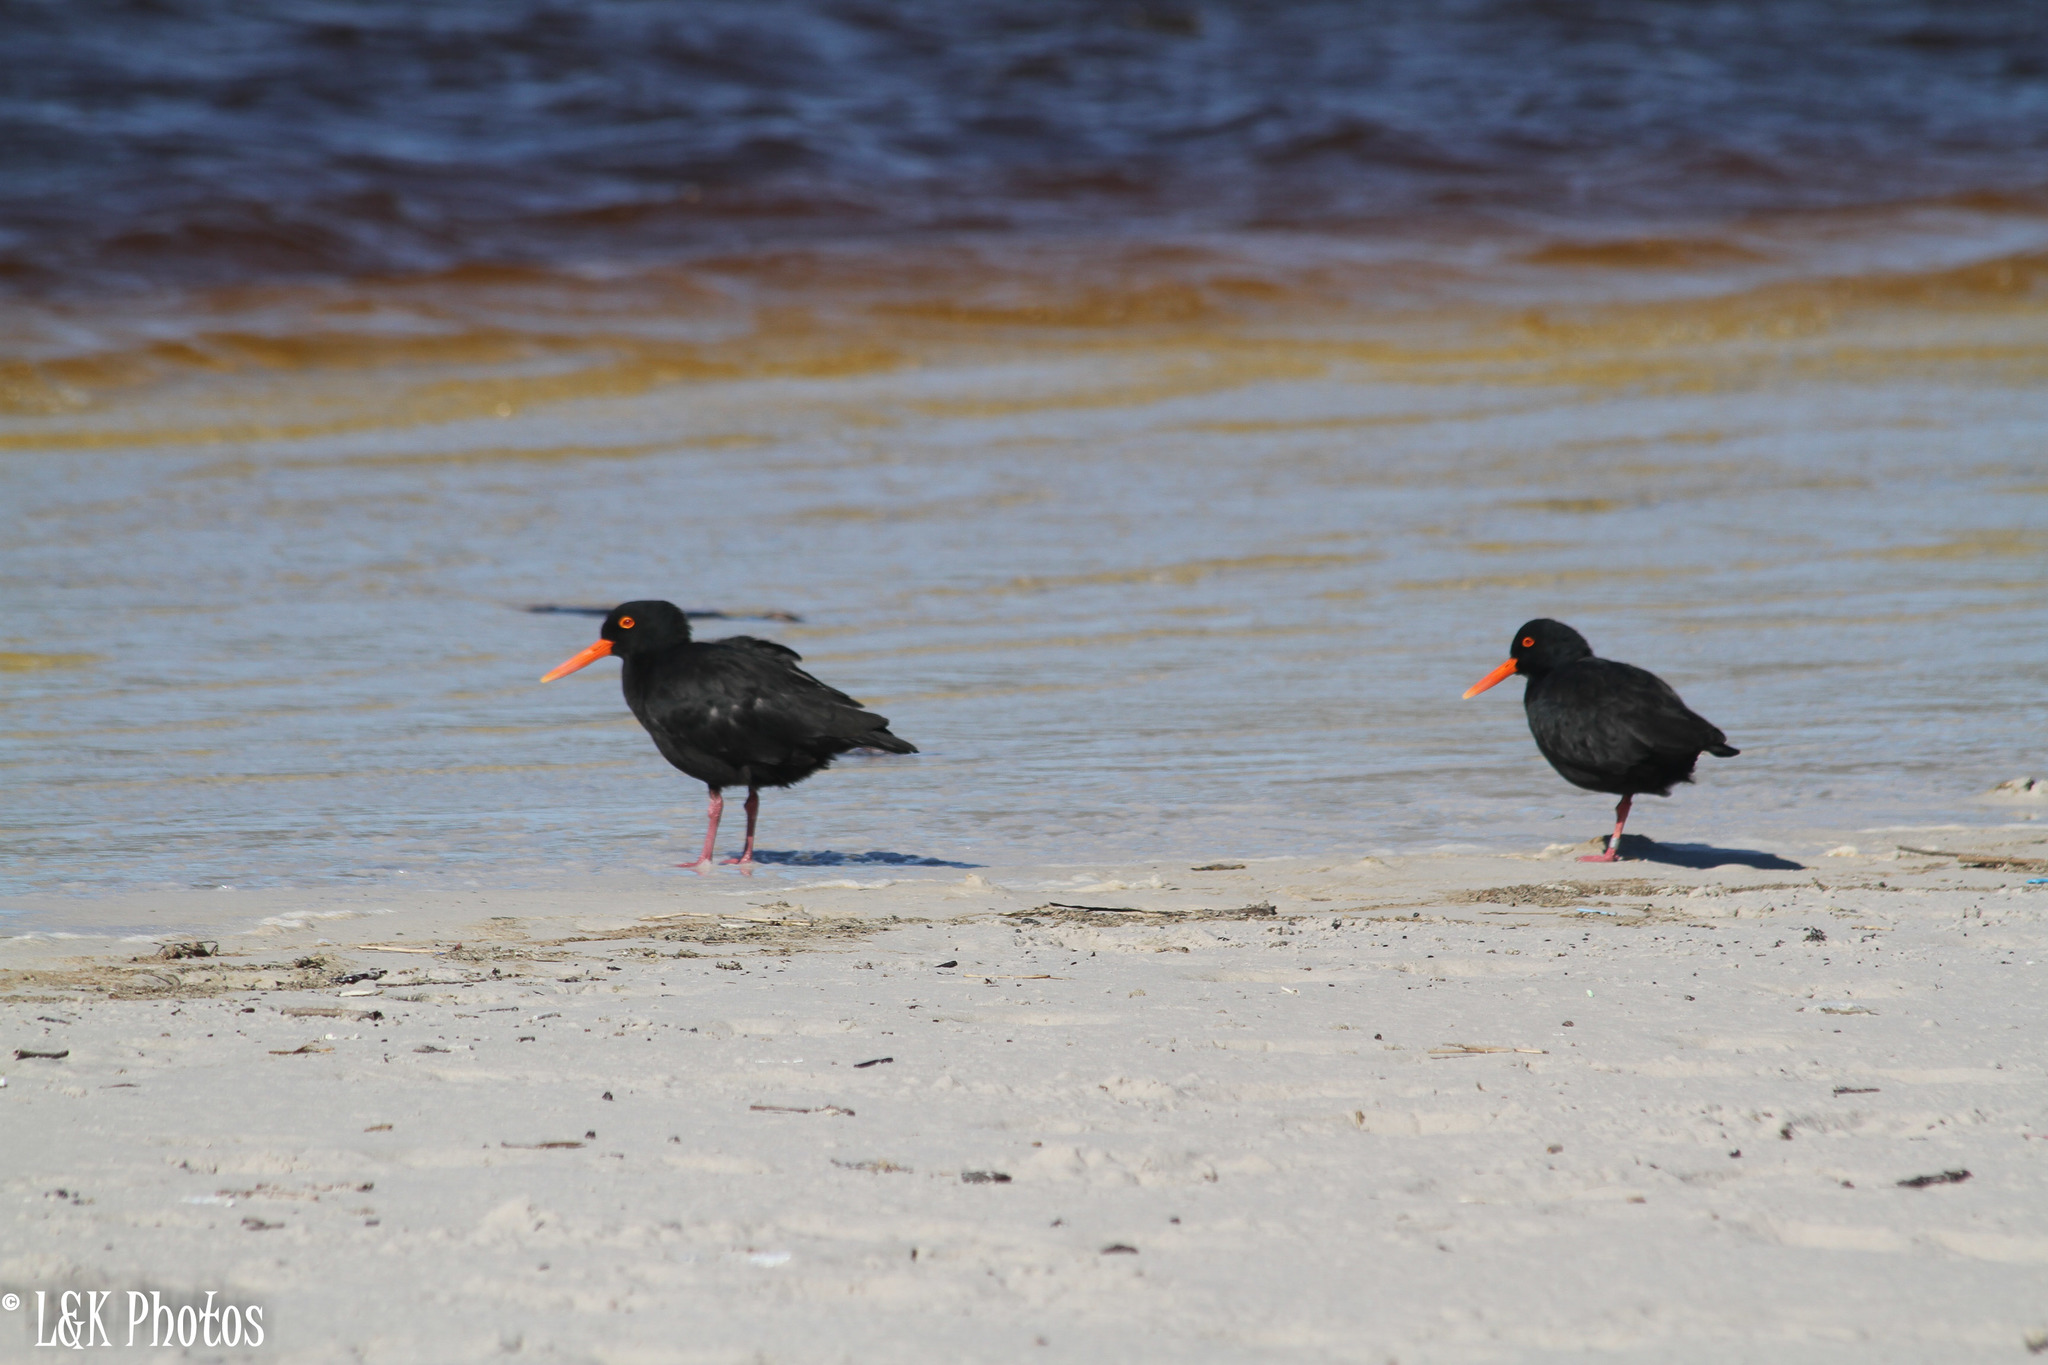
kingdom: Animalia
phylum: Chordata
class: Aves
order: Charadriiformes
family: Haematopodidae
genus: Haematopus
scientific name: Haematopus moquini
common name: African oystercatcher
